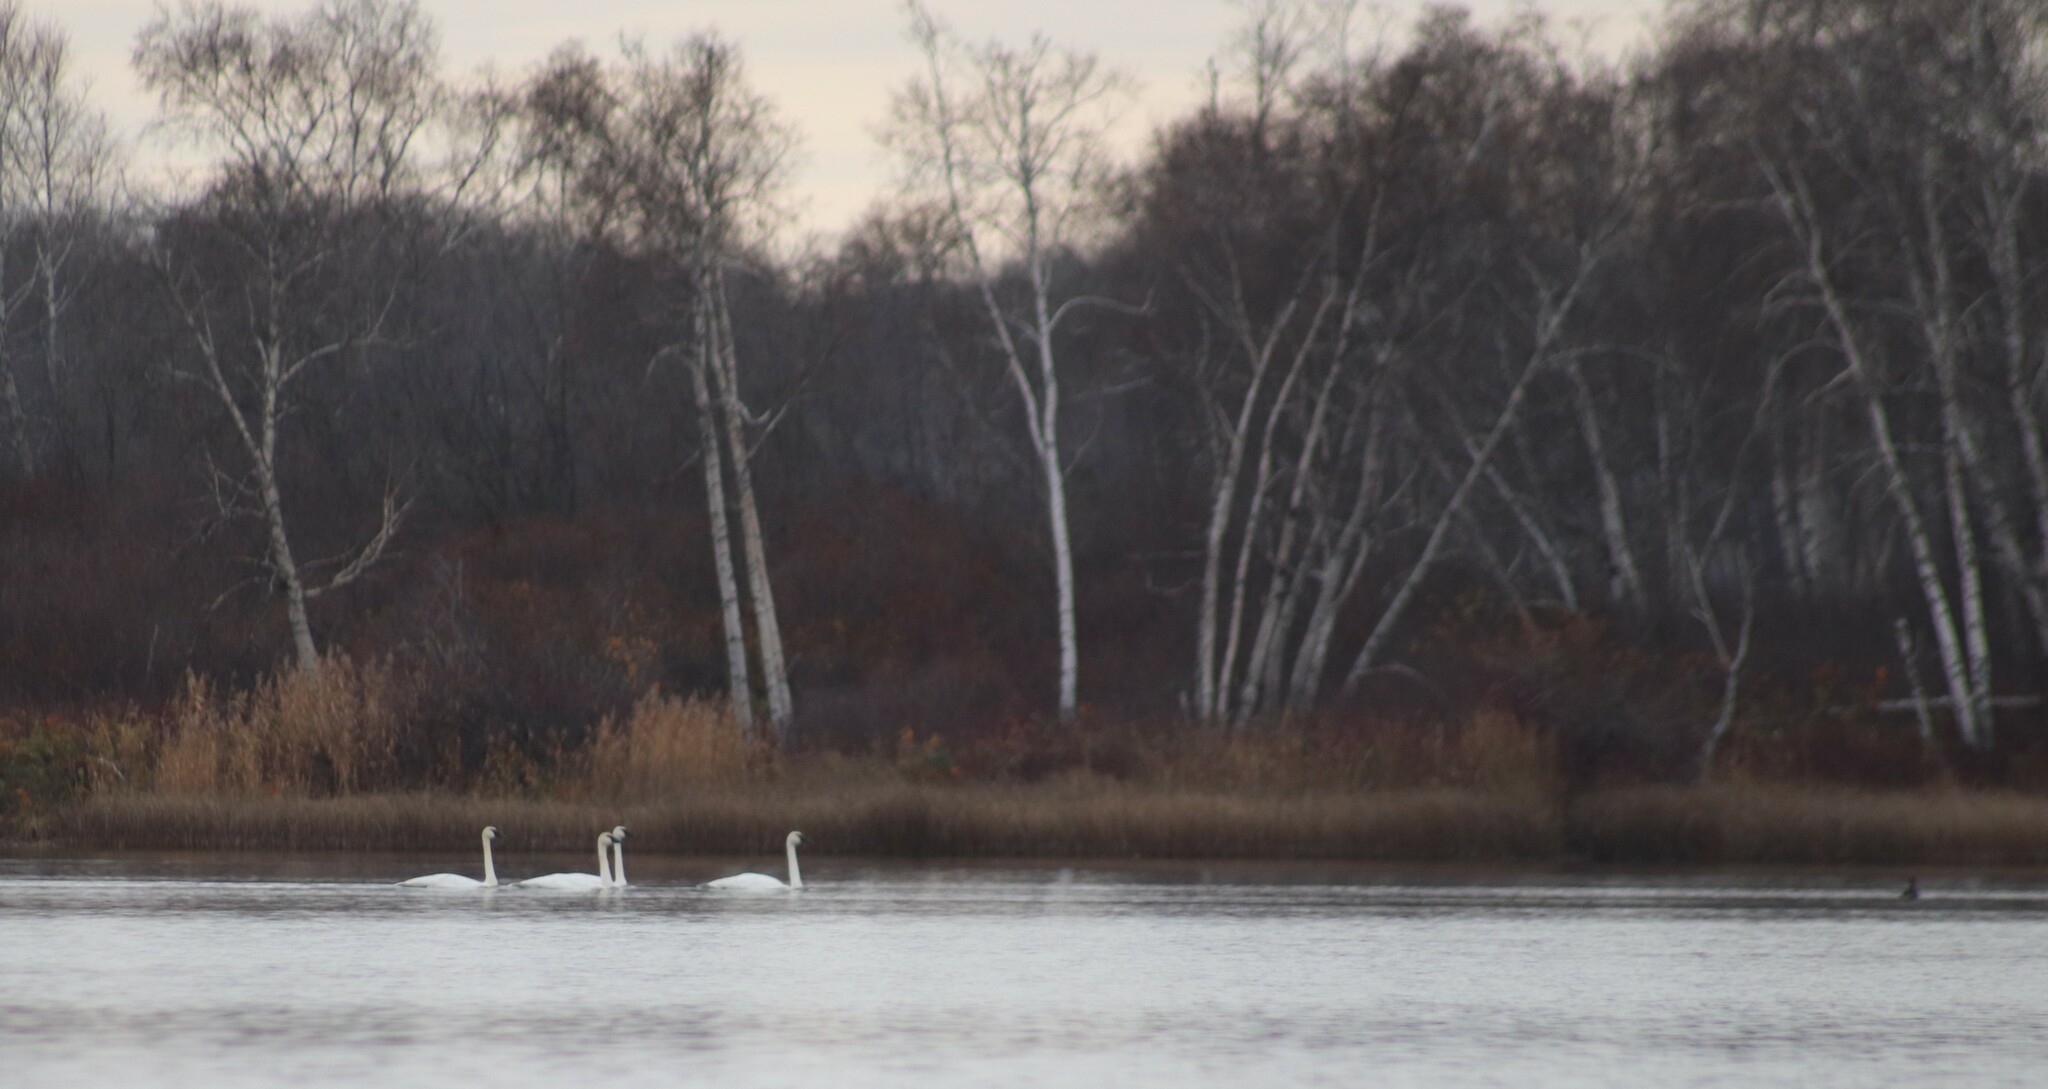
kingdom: Animalia
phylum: Chordata
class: Aves
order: Anseriformes
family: Anatidae
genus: Cygnus
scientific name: Cygnus buccinator
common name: Trumpeter swan
